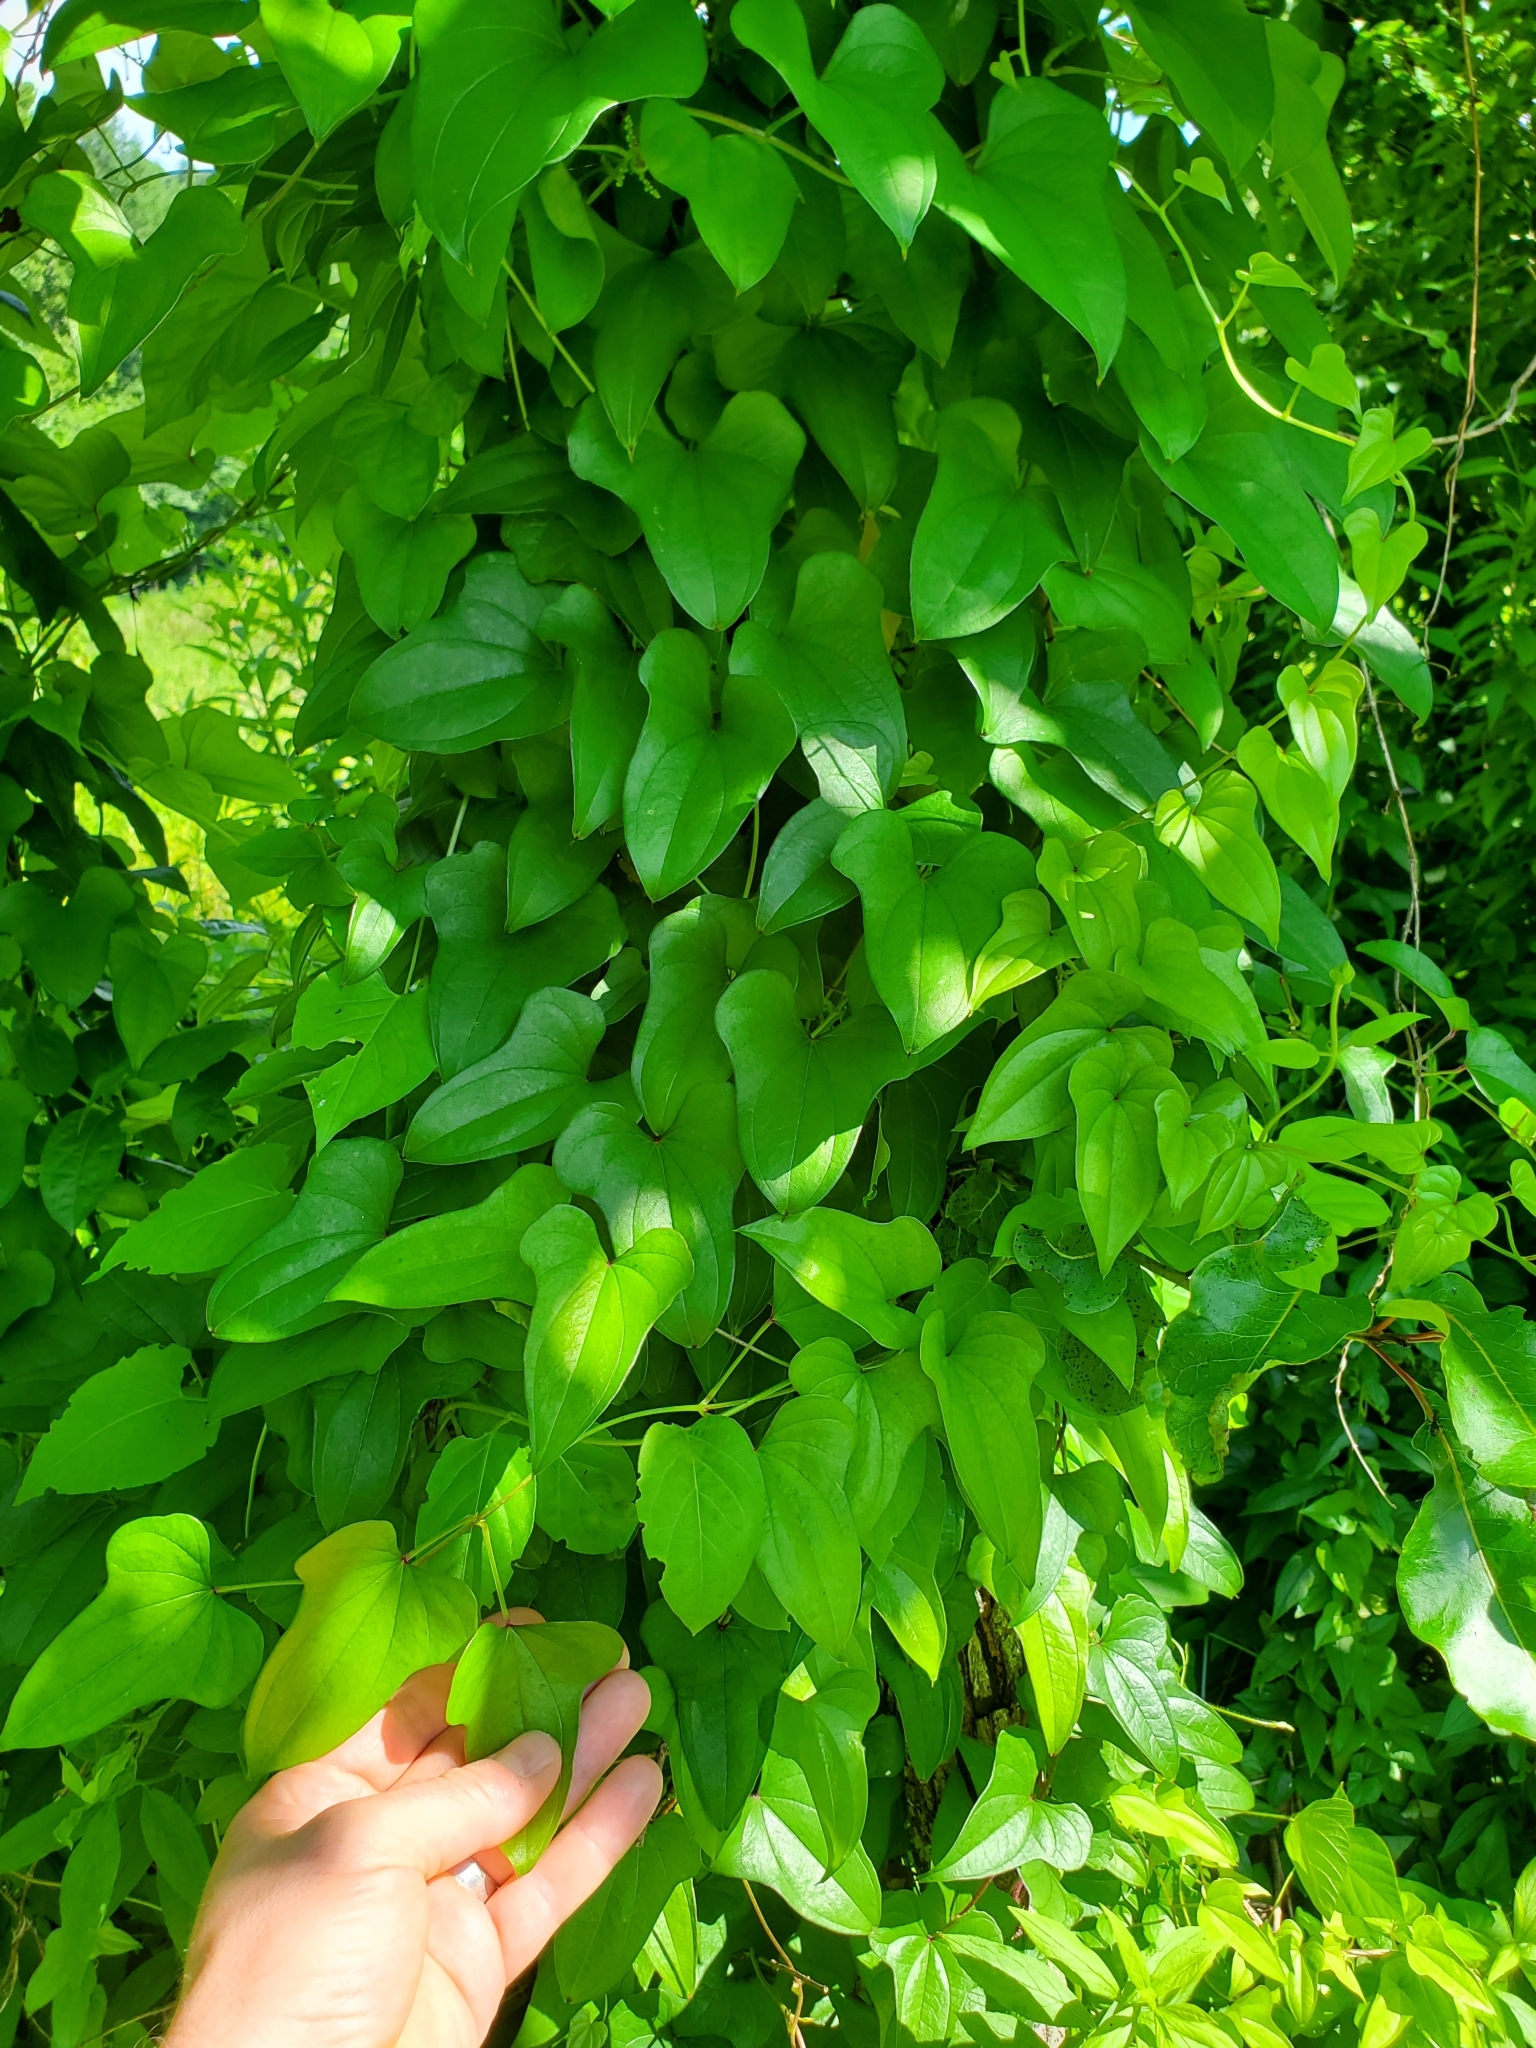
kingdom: Plantae
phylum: Tracheophyta
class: Liliopsida
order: Dioscoreales
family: Dioscoreaceae
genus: Dioscorea
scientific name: Dioscorea polystachya
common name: Chinese yam
